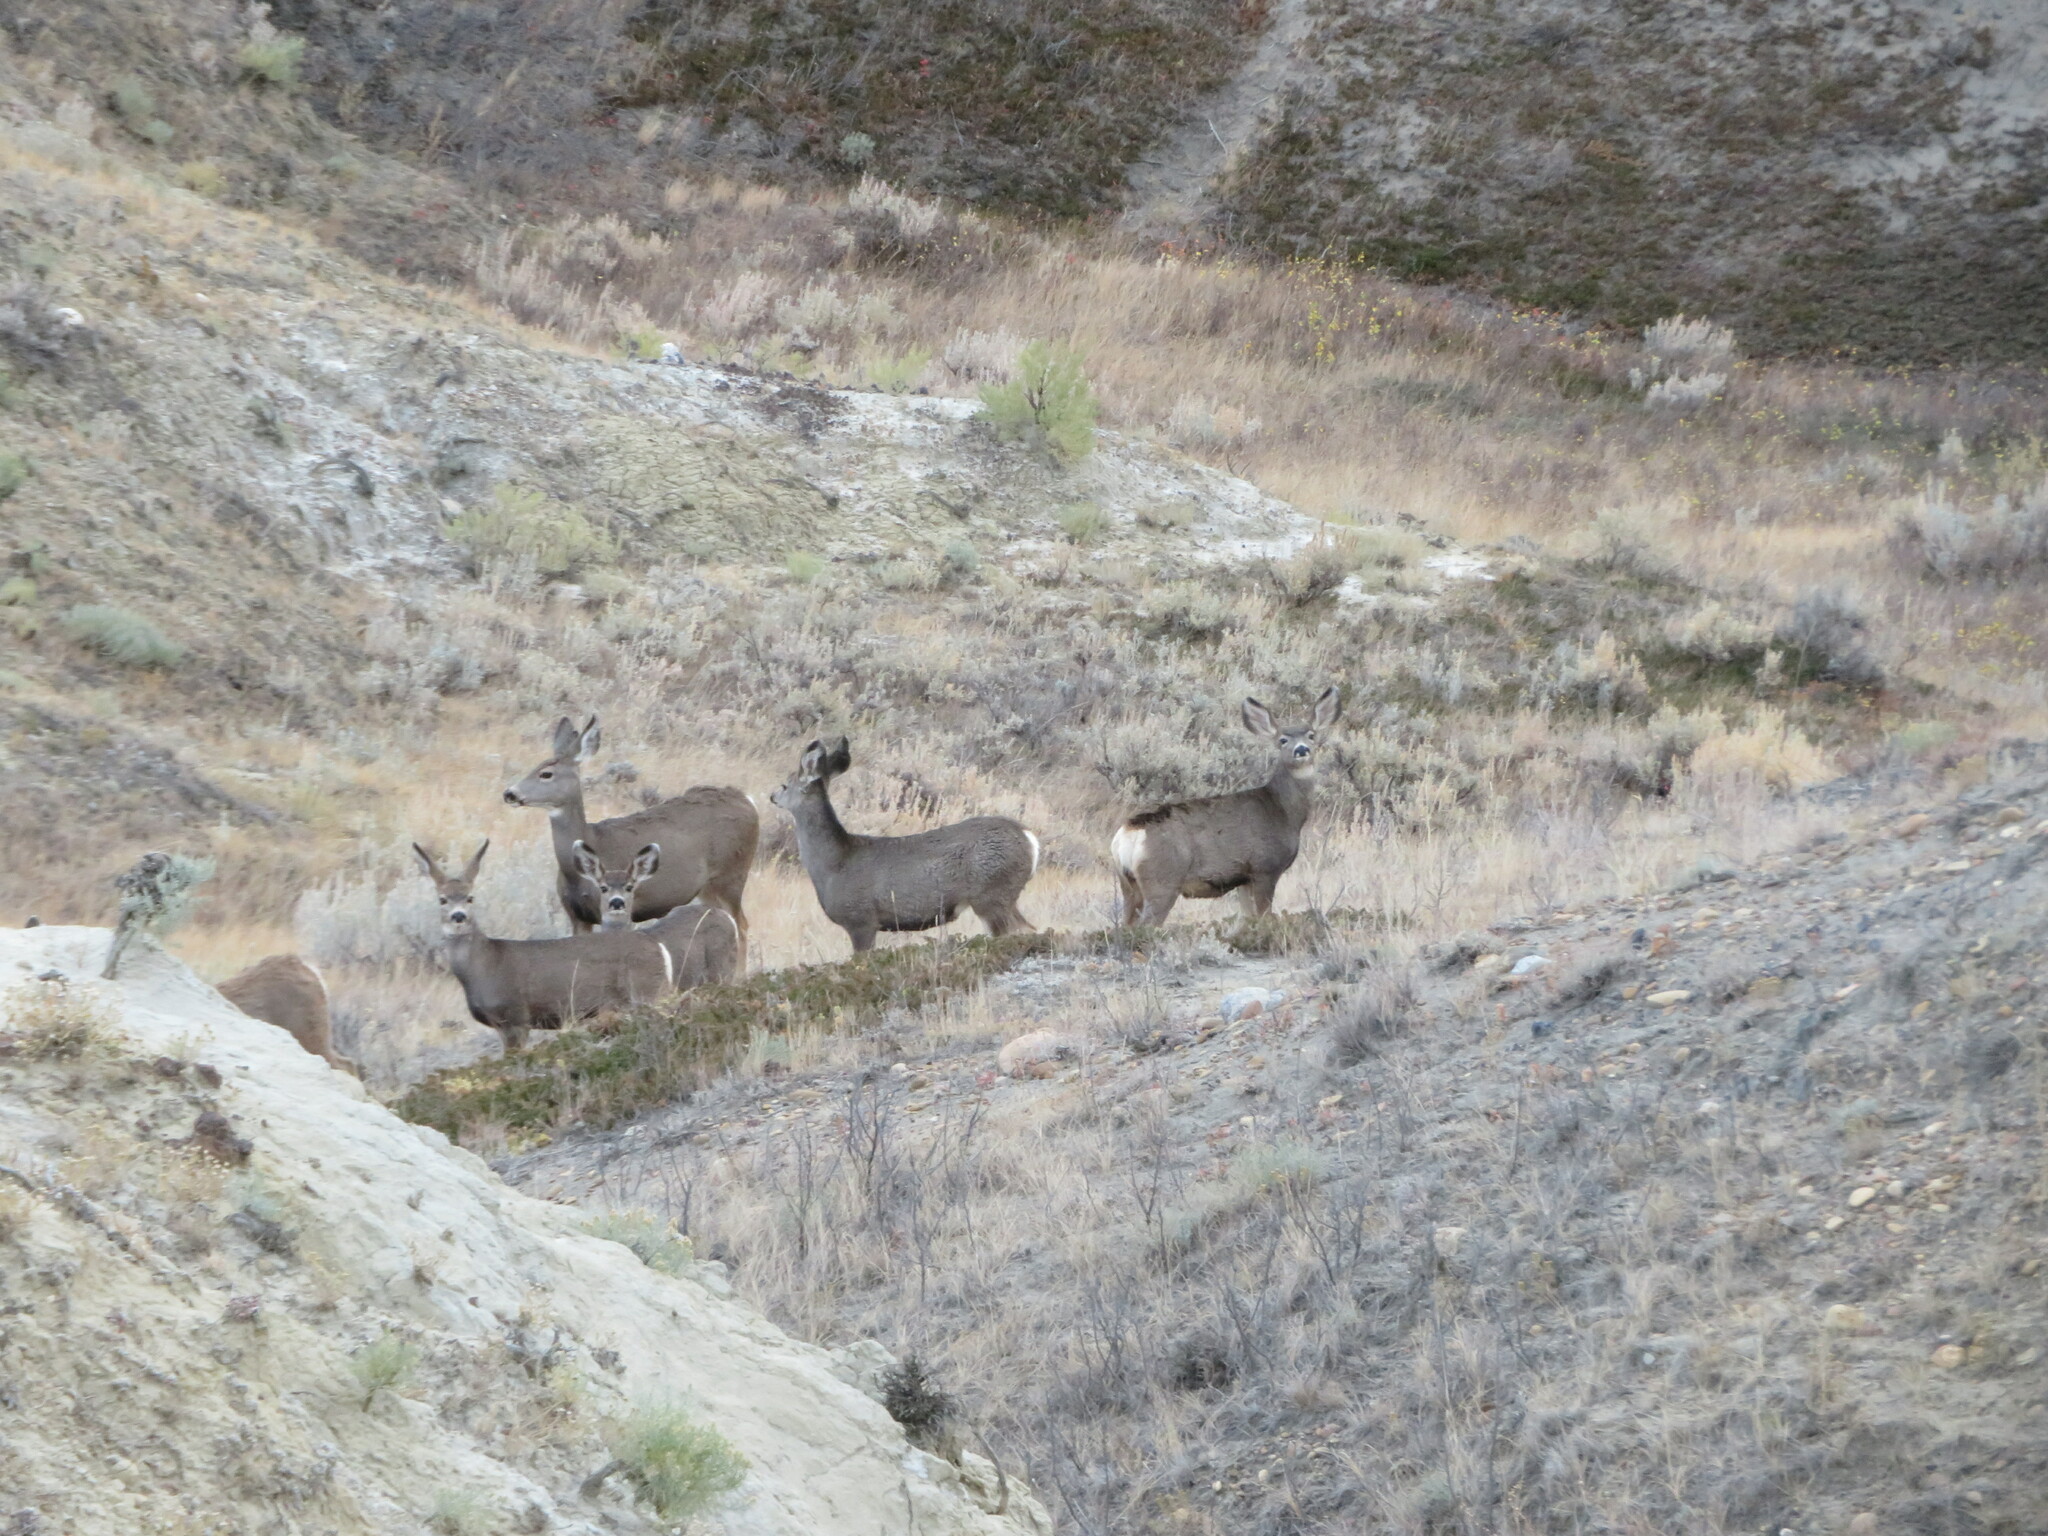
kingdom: Animalia
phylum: Chordata
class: Mammalia
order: Artiodactyla
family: Cervidae
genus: Odocoileus
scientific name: Odocoileus hemionus
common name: Mule deer
